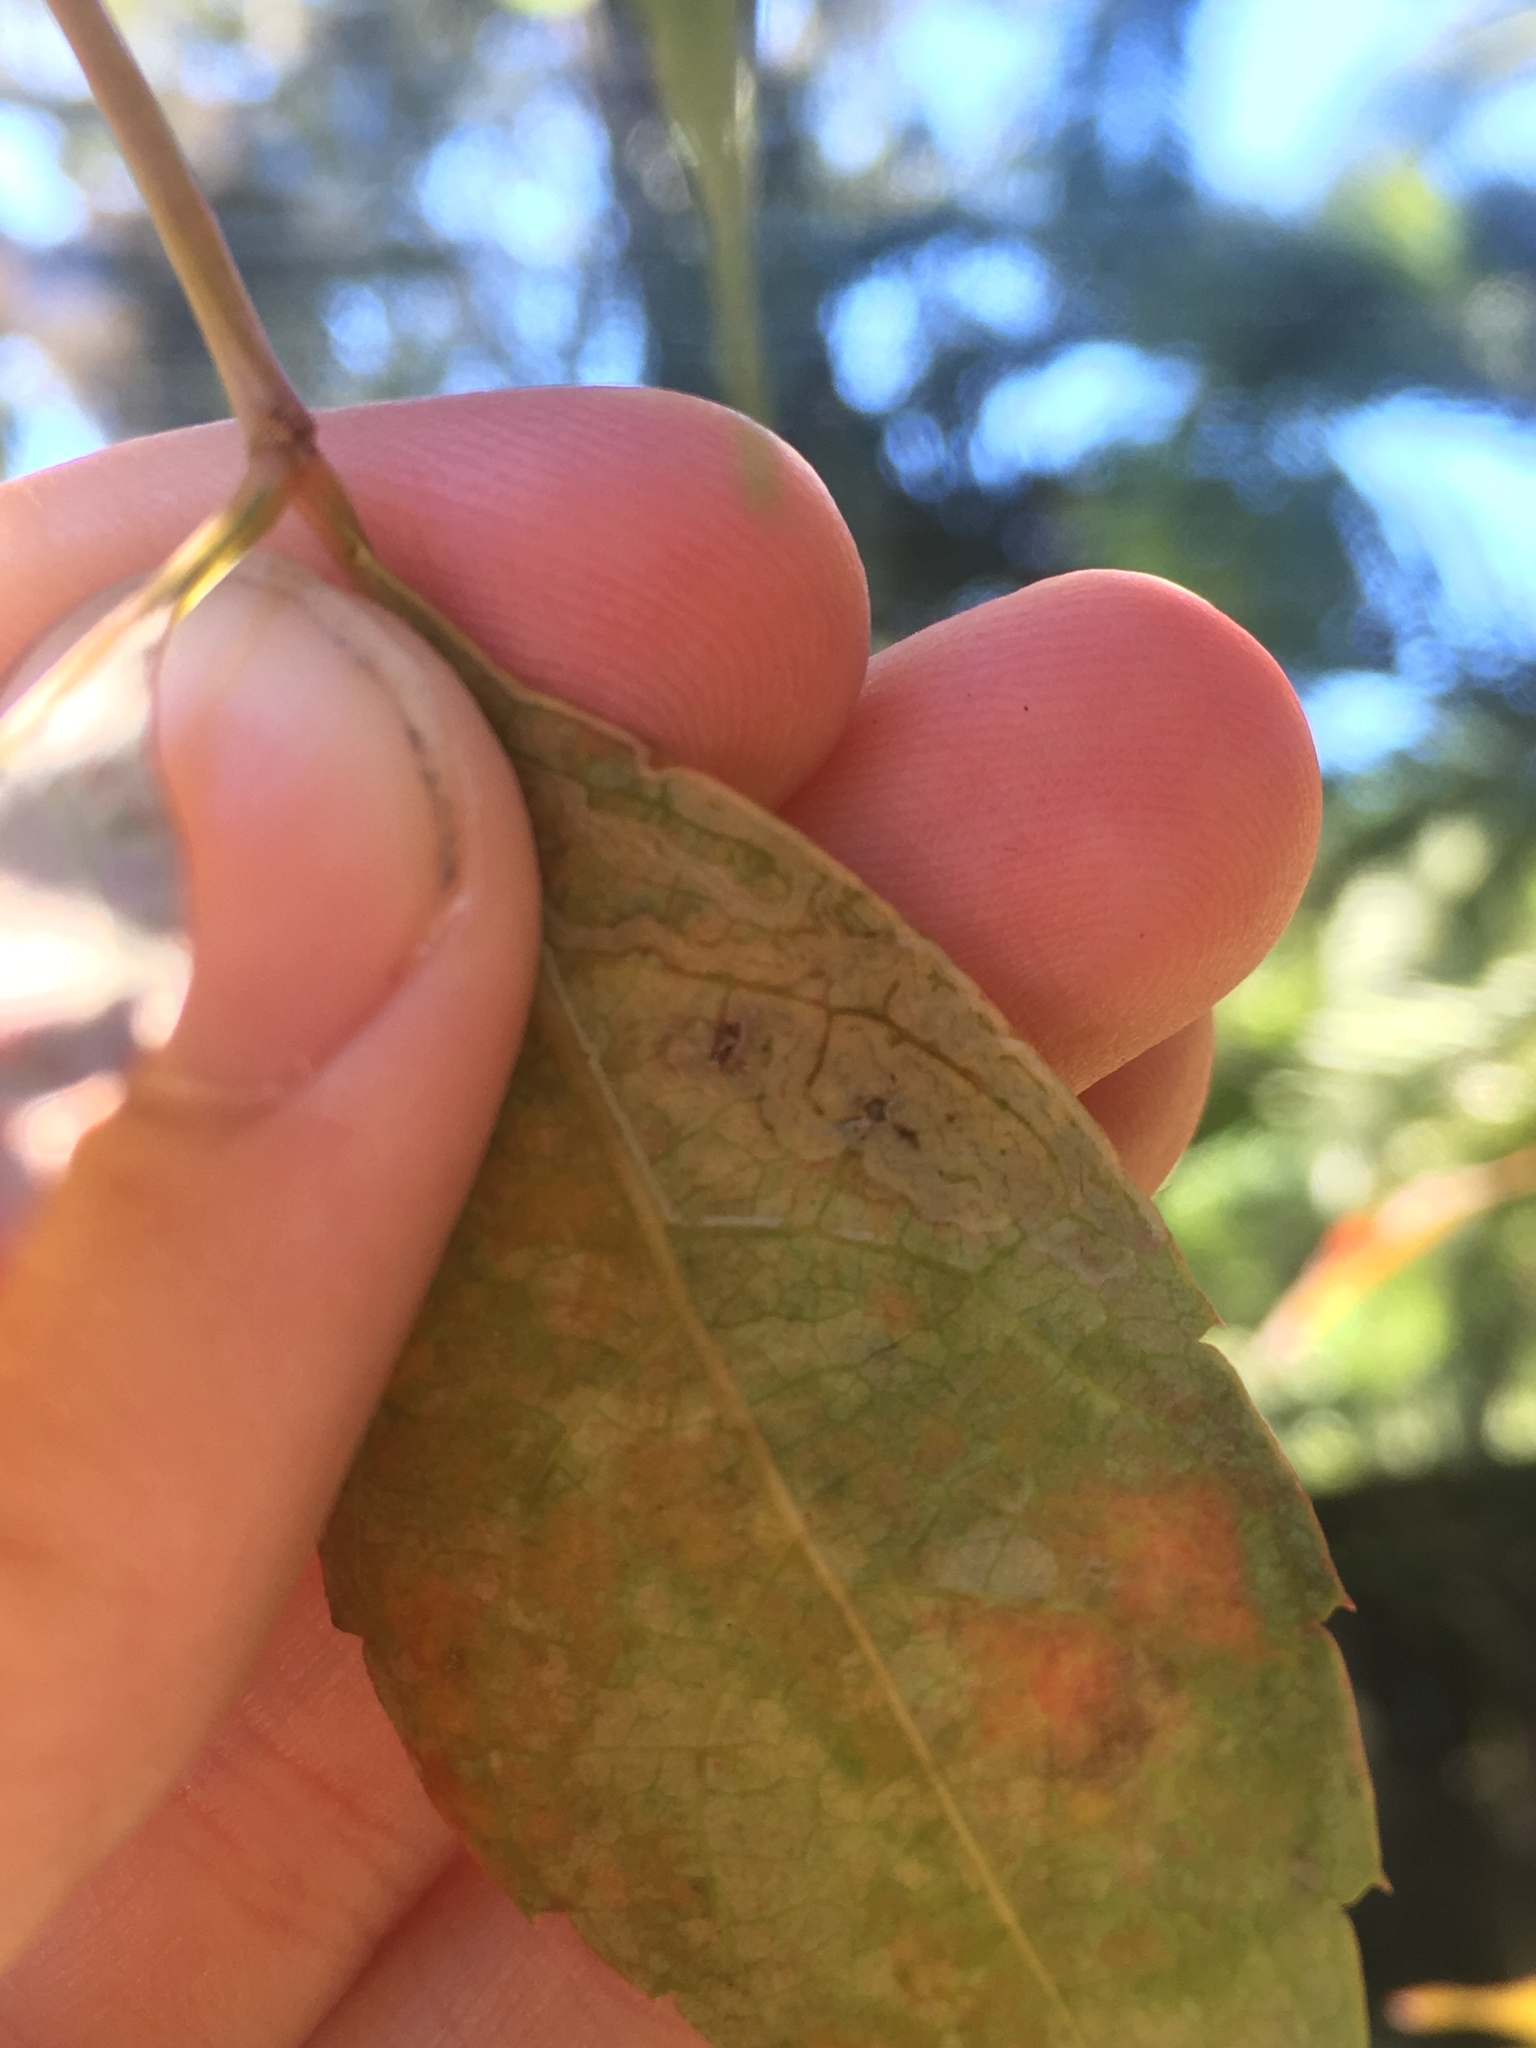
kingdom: Animalia
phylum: Arthropoda
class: Insecta
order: Lepidoptera
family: Gracillariidae
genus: Phyllocnistis
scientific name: Phyllocnistis ampelopsiella
